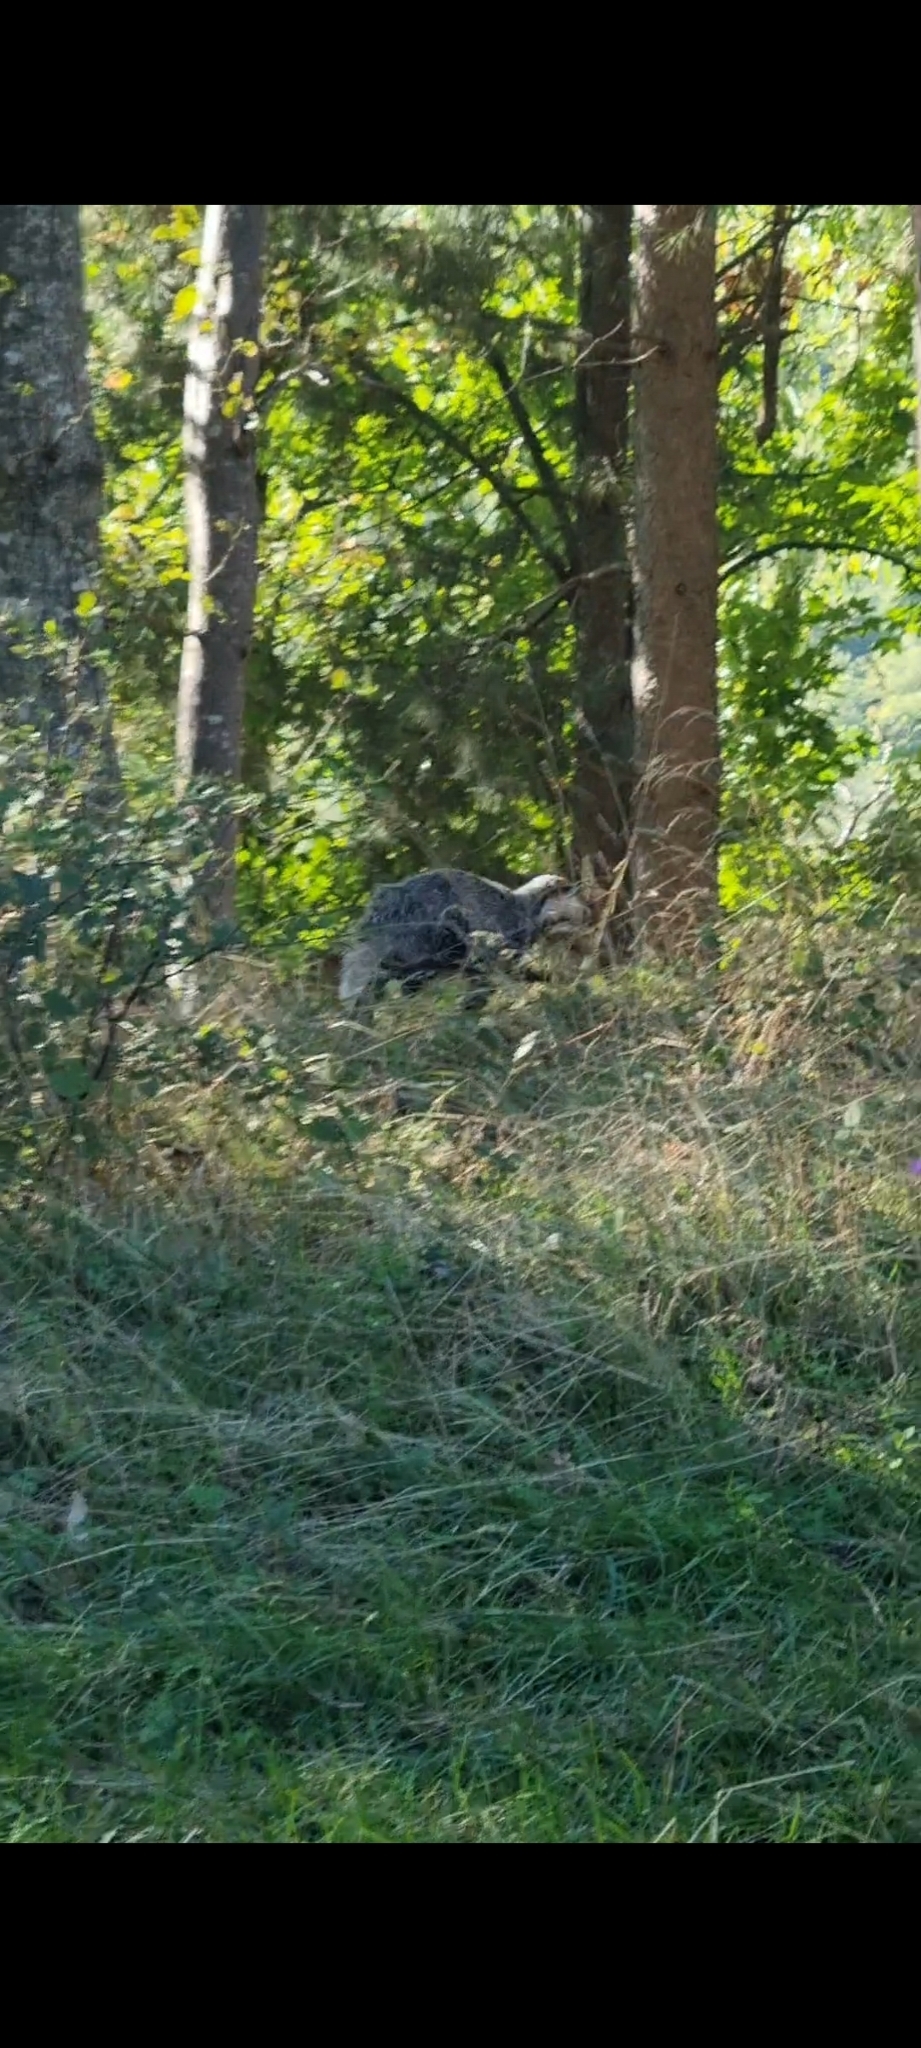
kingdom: Animalia
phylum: Chordata
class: Mammalia
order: Carnivora
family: Mustelidae
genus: Meles
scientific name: Meles meles
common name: Eurasian badger
